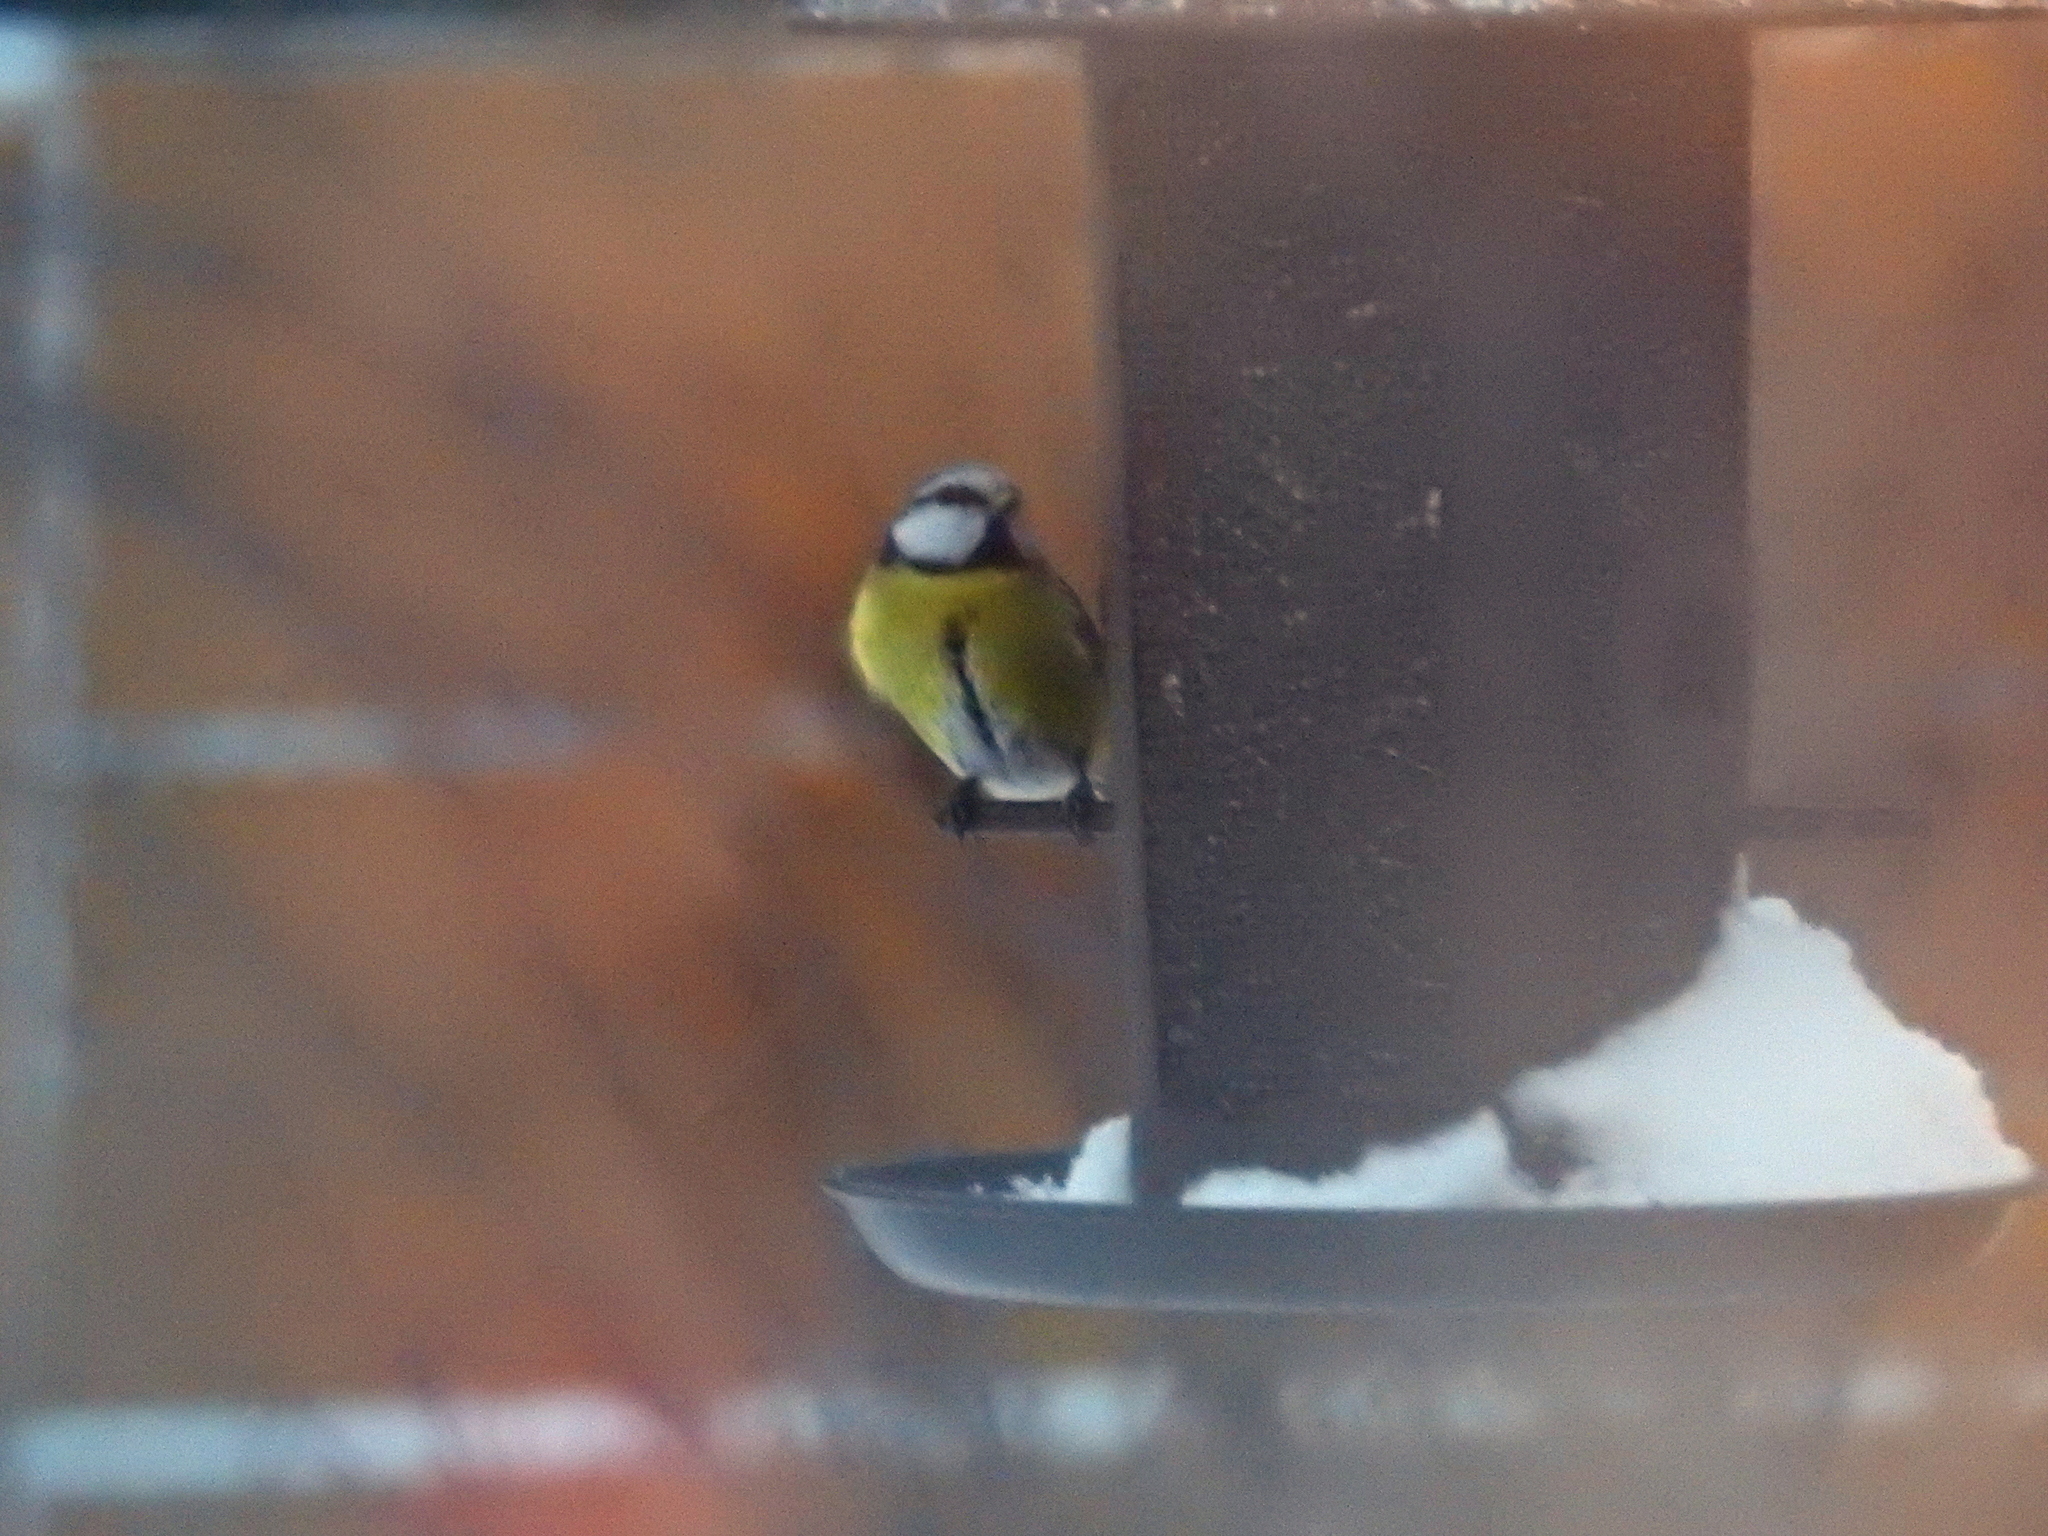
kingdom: Animalia
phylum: Chordata
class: Aves
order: Passeriformes
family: Paridae
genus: Cyanistes
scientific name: Cyanistes caeruleus
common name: Eurasian blue tit
